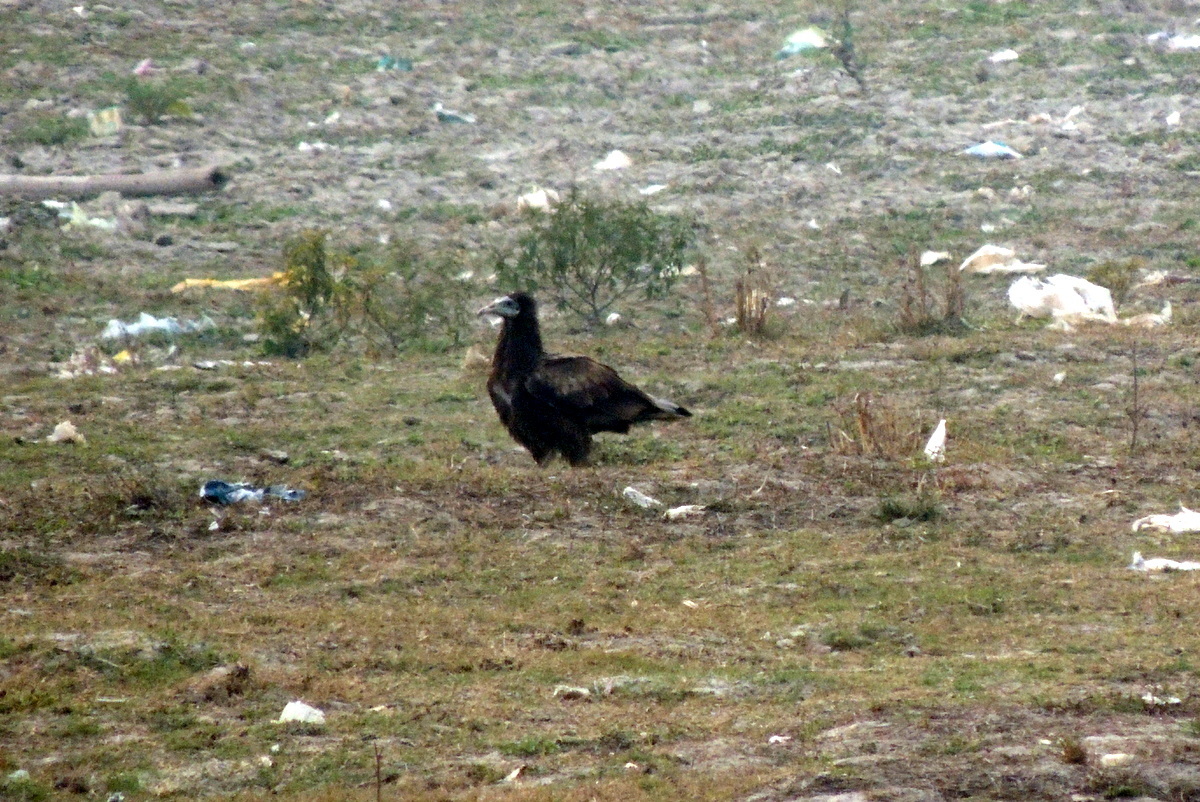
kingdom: Animalia
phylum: Chordata
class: Aves
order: Accipitriformes
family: Accipitridae
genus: Neophron
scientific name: Neophron percnopterus
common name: Egyptian vulture
